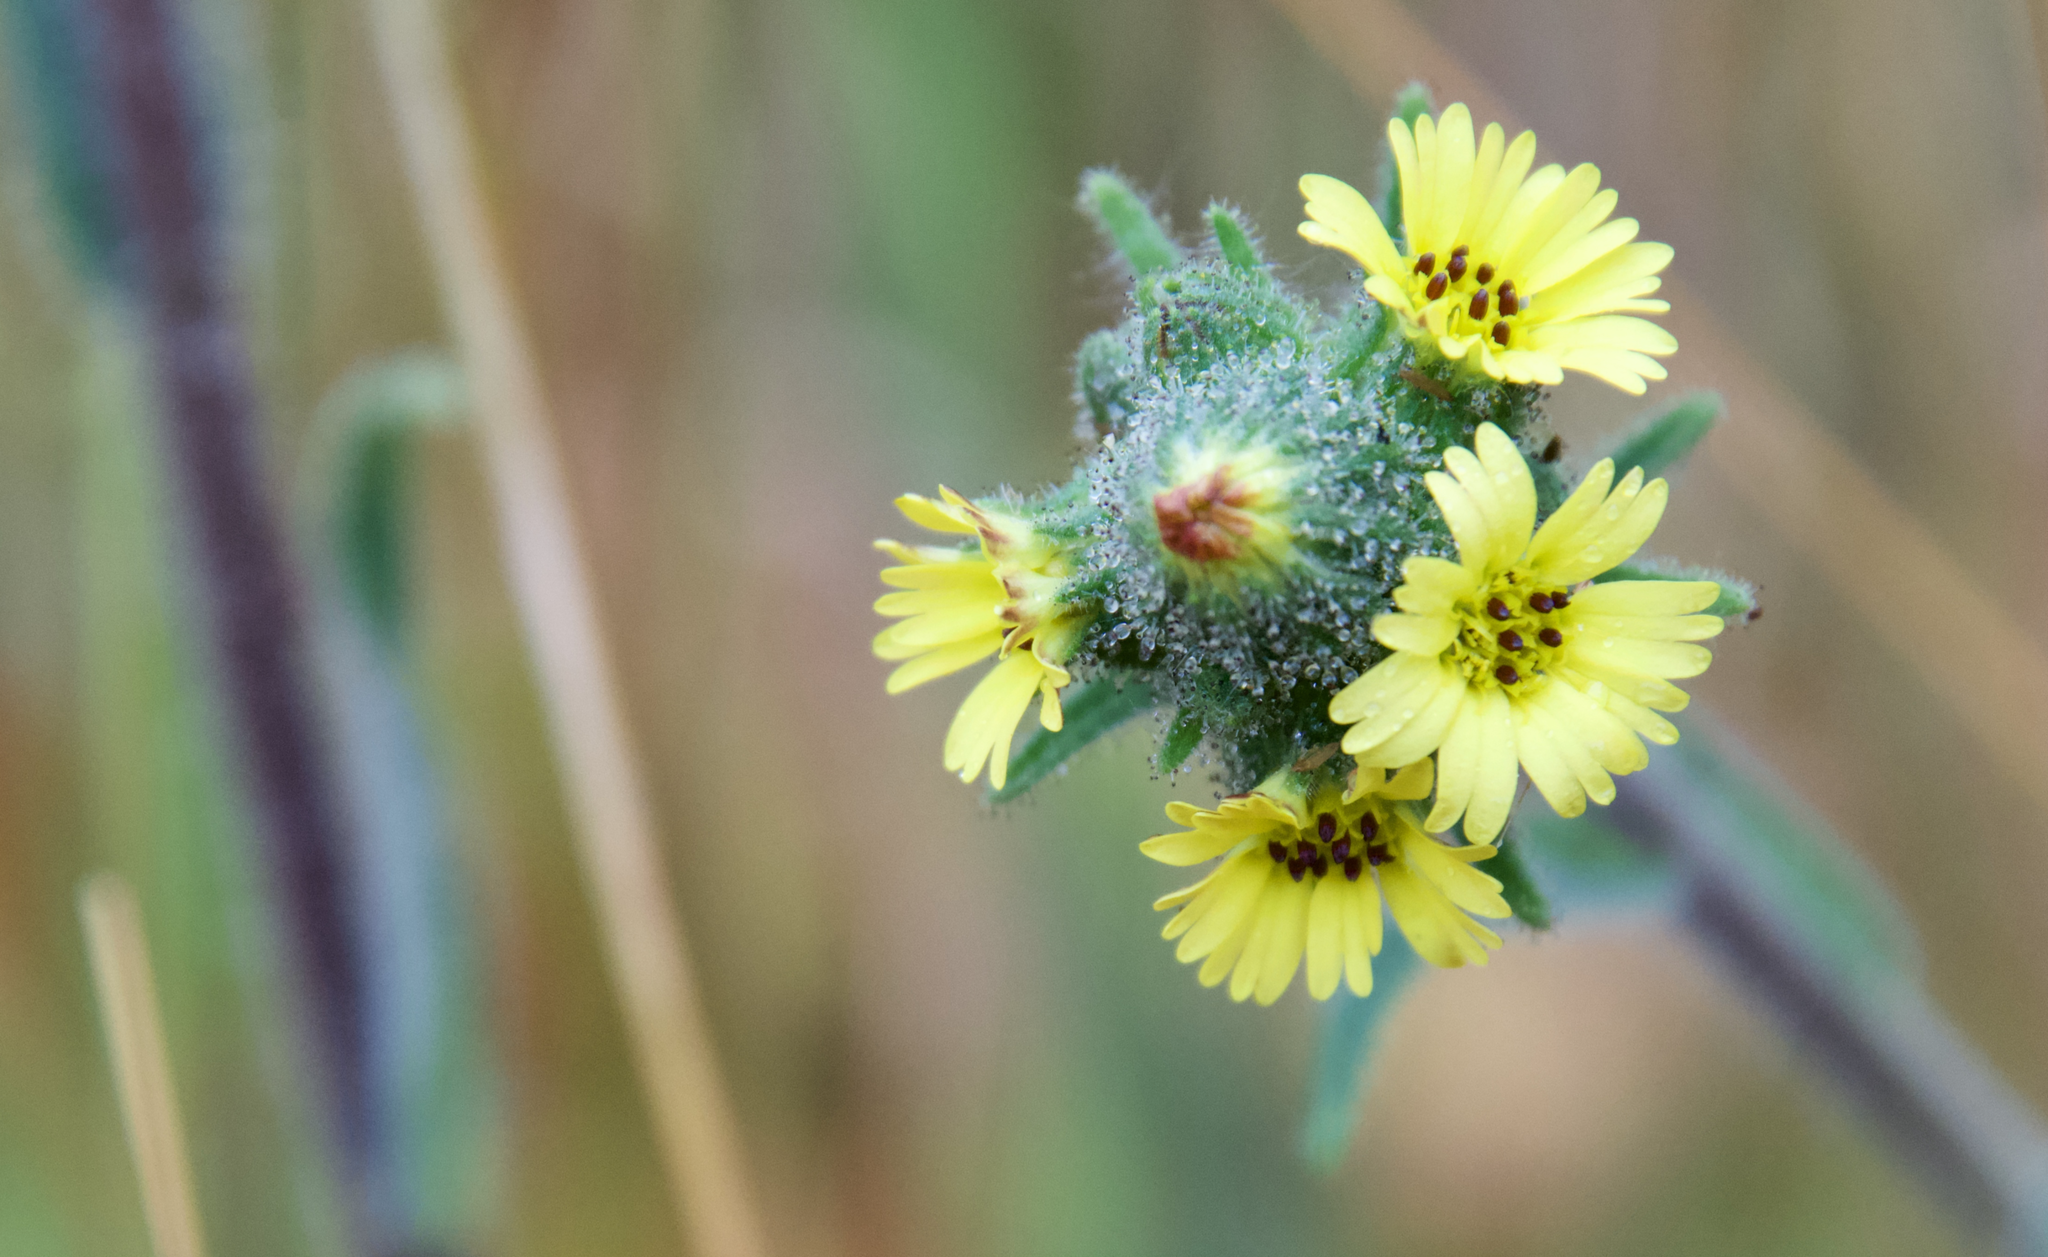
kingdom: Plantae
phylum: Tracheophyta
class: Magnoliopsida
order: Asterales
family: Asteraceae
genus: Madia
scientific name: Madia sativa
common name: Coast tarweed
